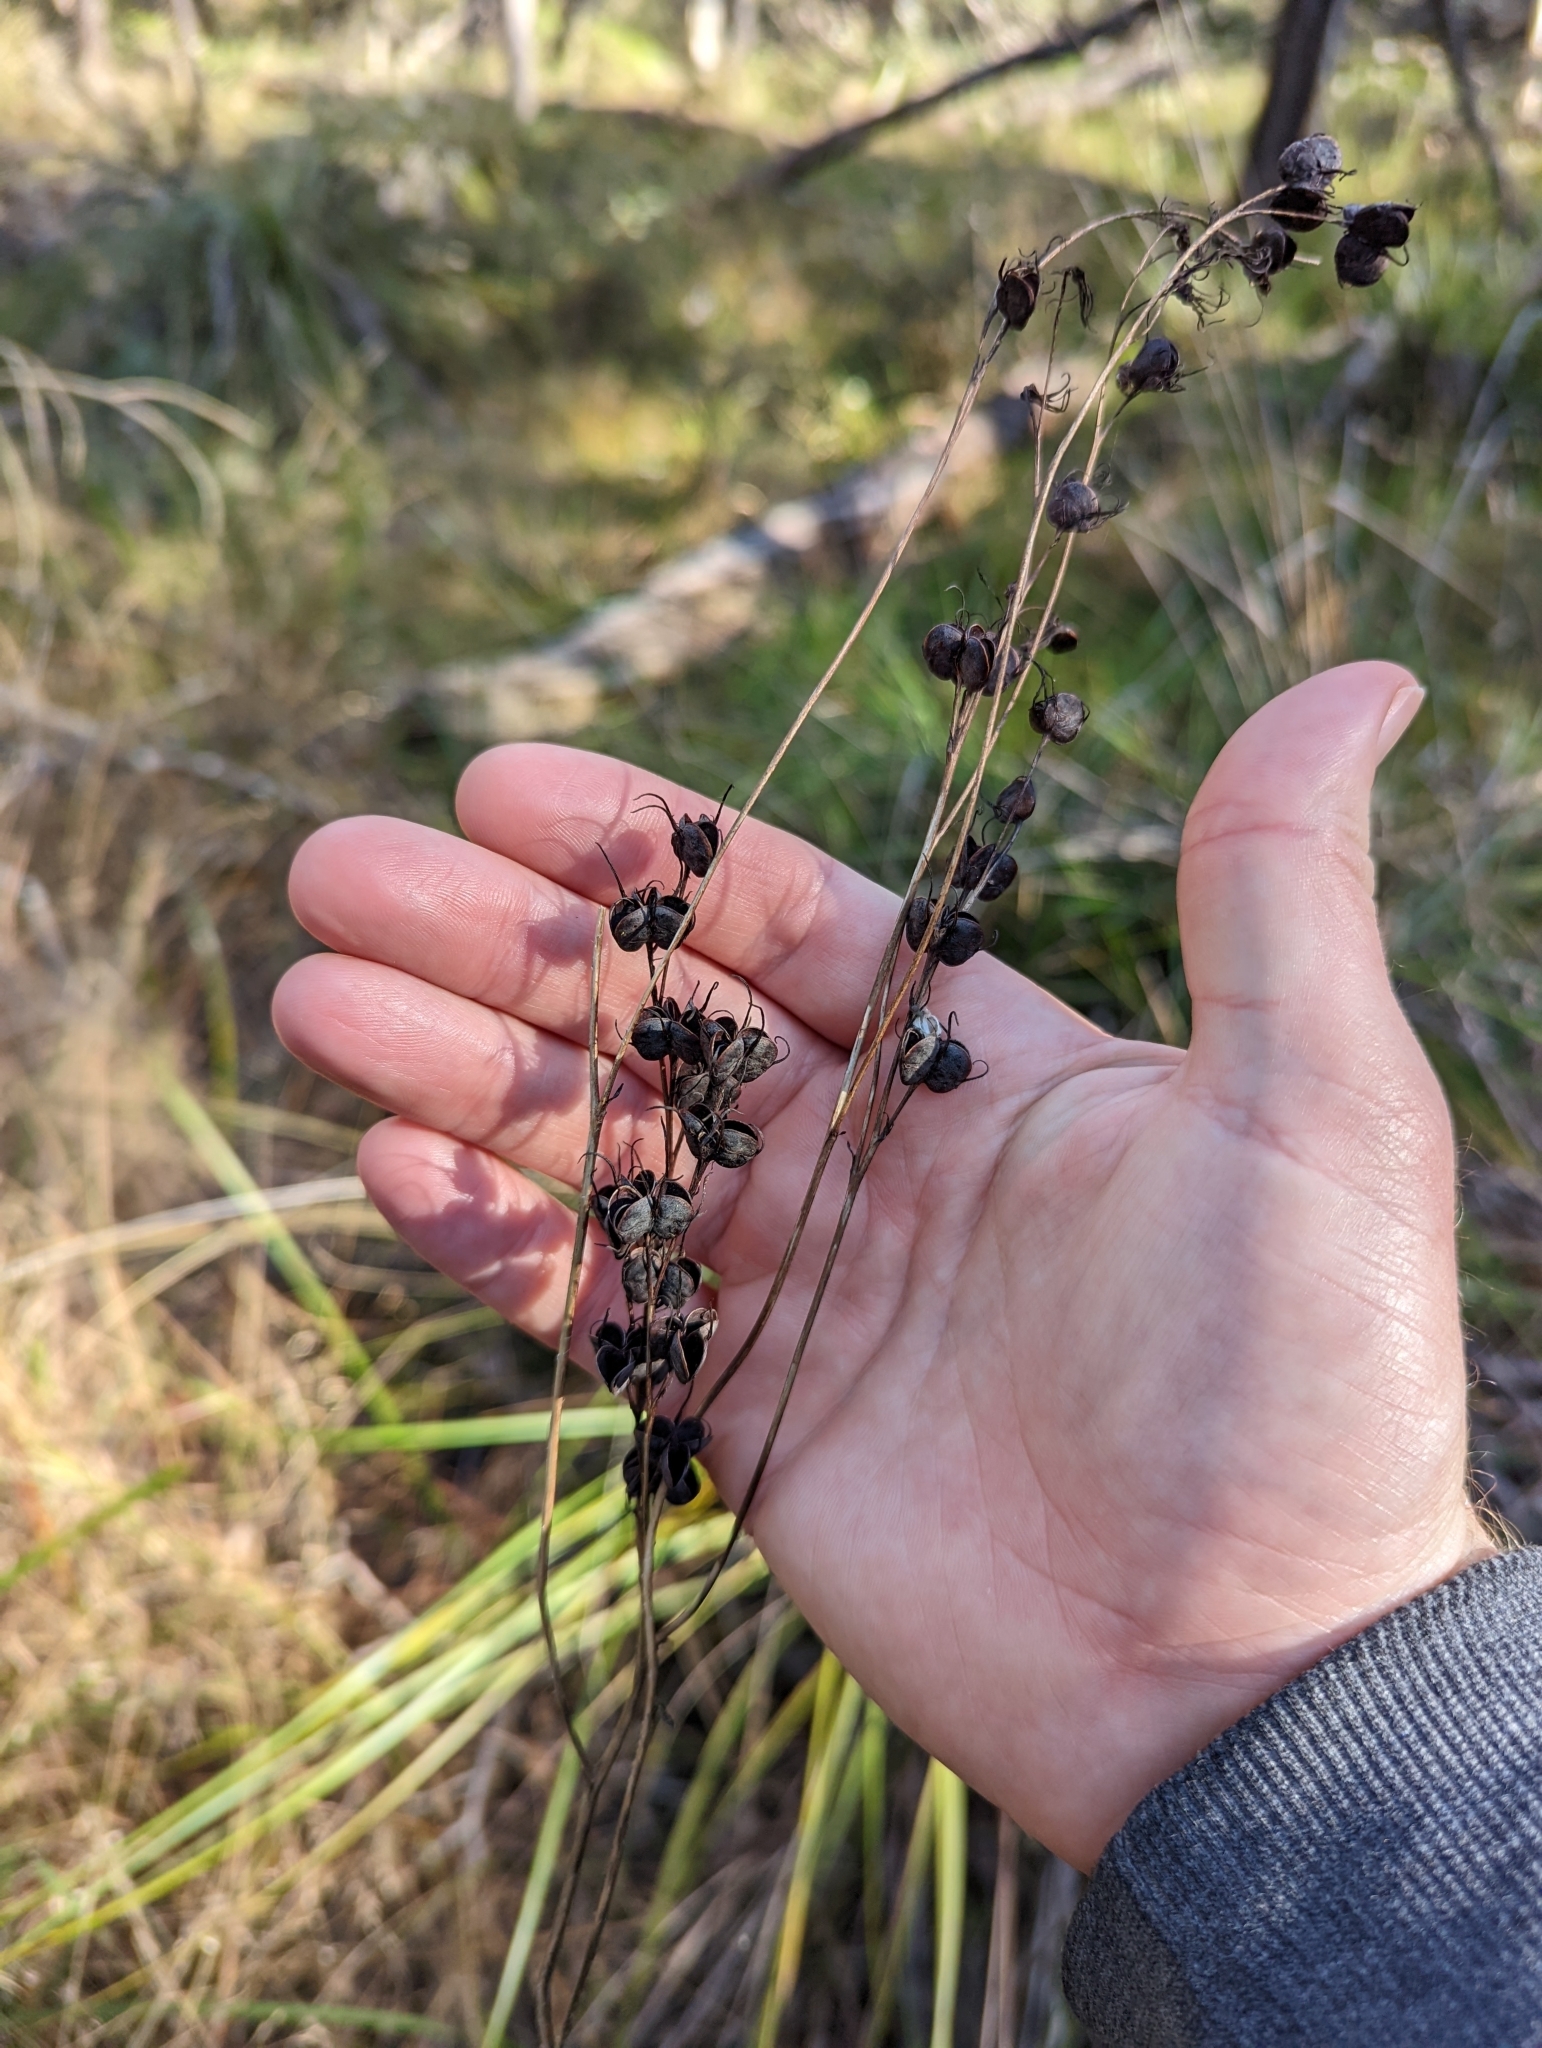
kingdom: Plantae
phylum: Tracheophyta
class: Liliopsida
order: Commelinales
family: Haemodoraceae
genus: Haemodorum
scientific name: Haemodorum austroqueenslandicum
